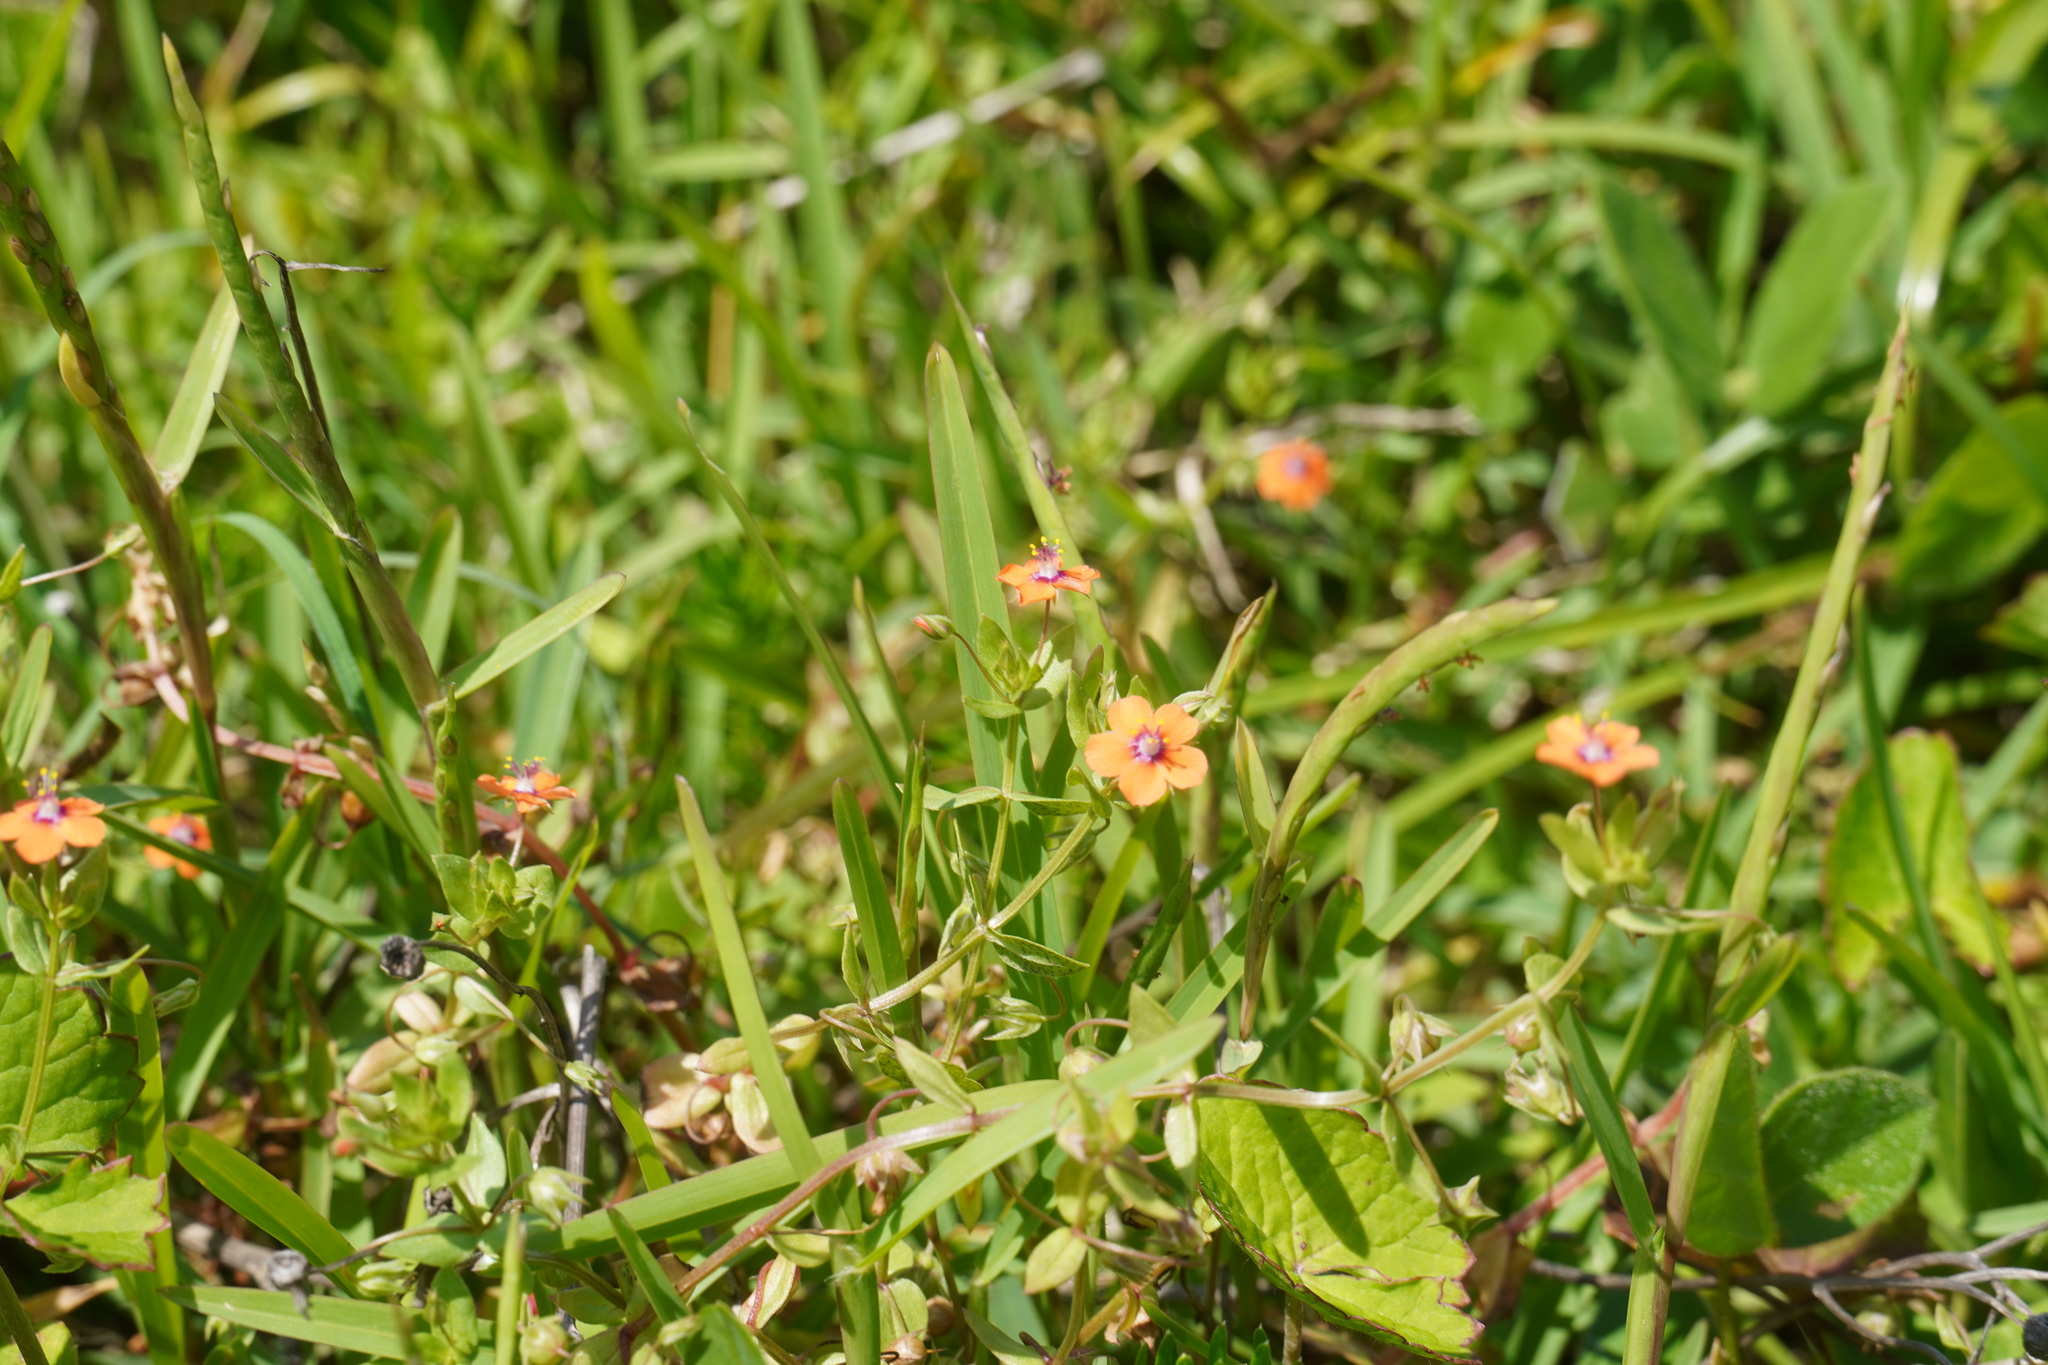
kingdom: Plantae
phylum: Tracheophyta
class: Magnoliopsida
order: Ericales
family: Primulaceae
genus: Lysimachia
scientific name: Lysimachia arvensis
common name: Scarlet pimpernel
